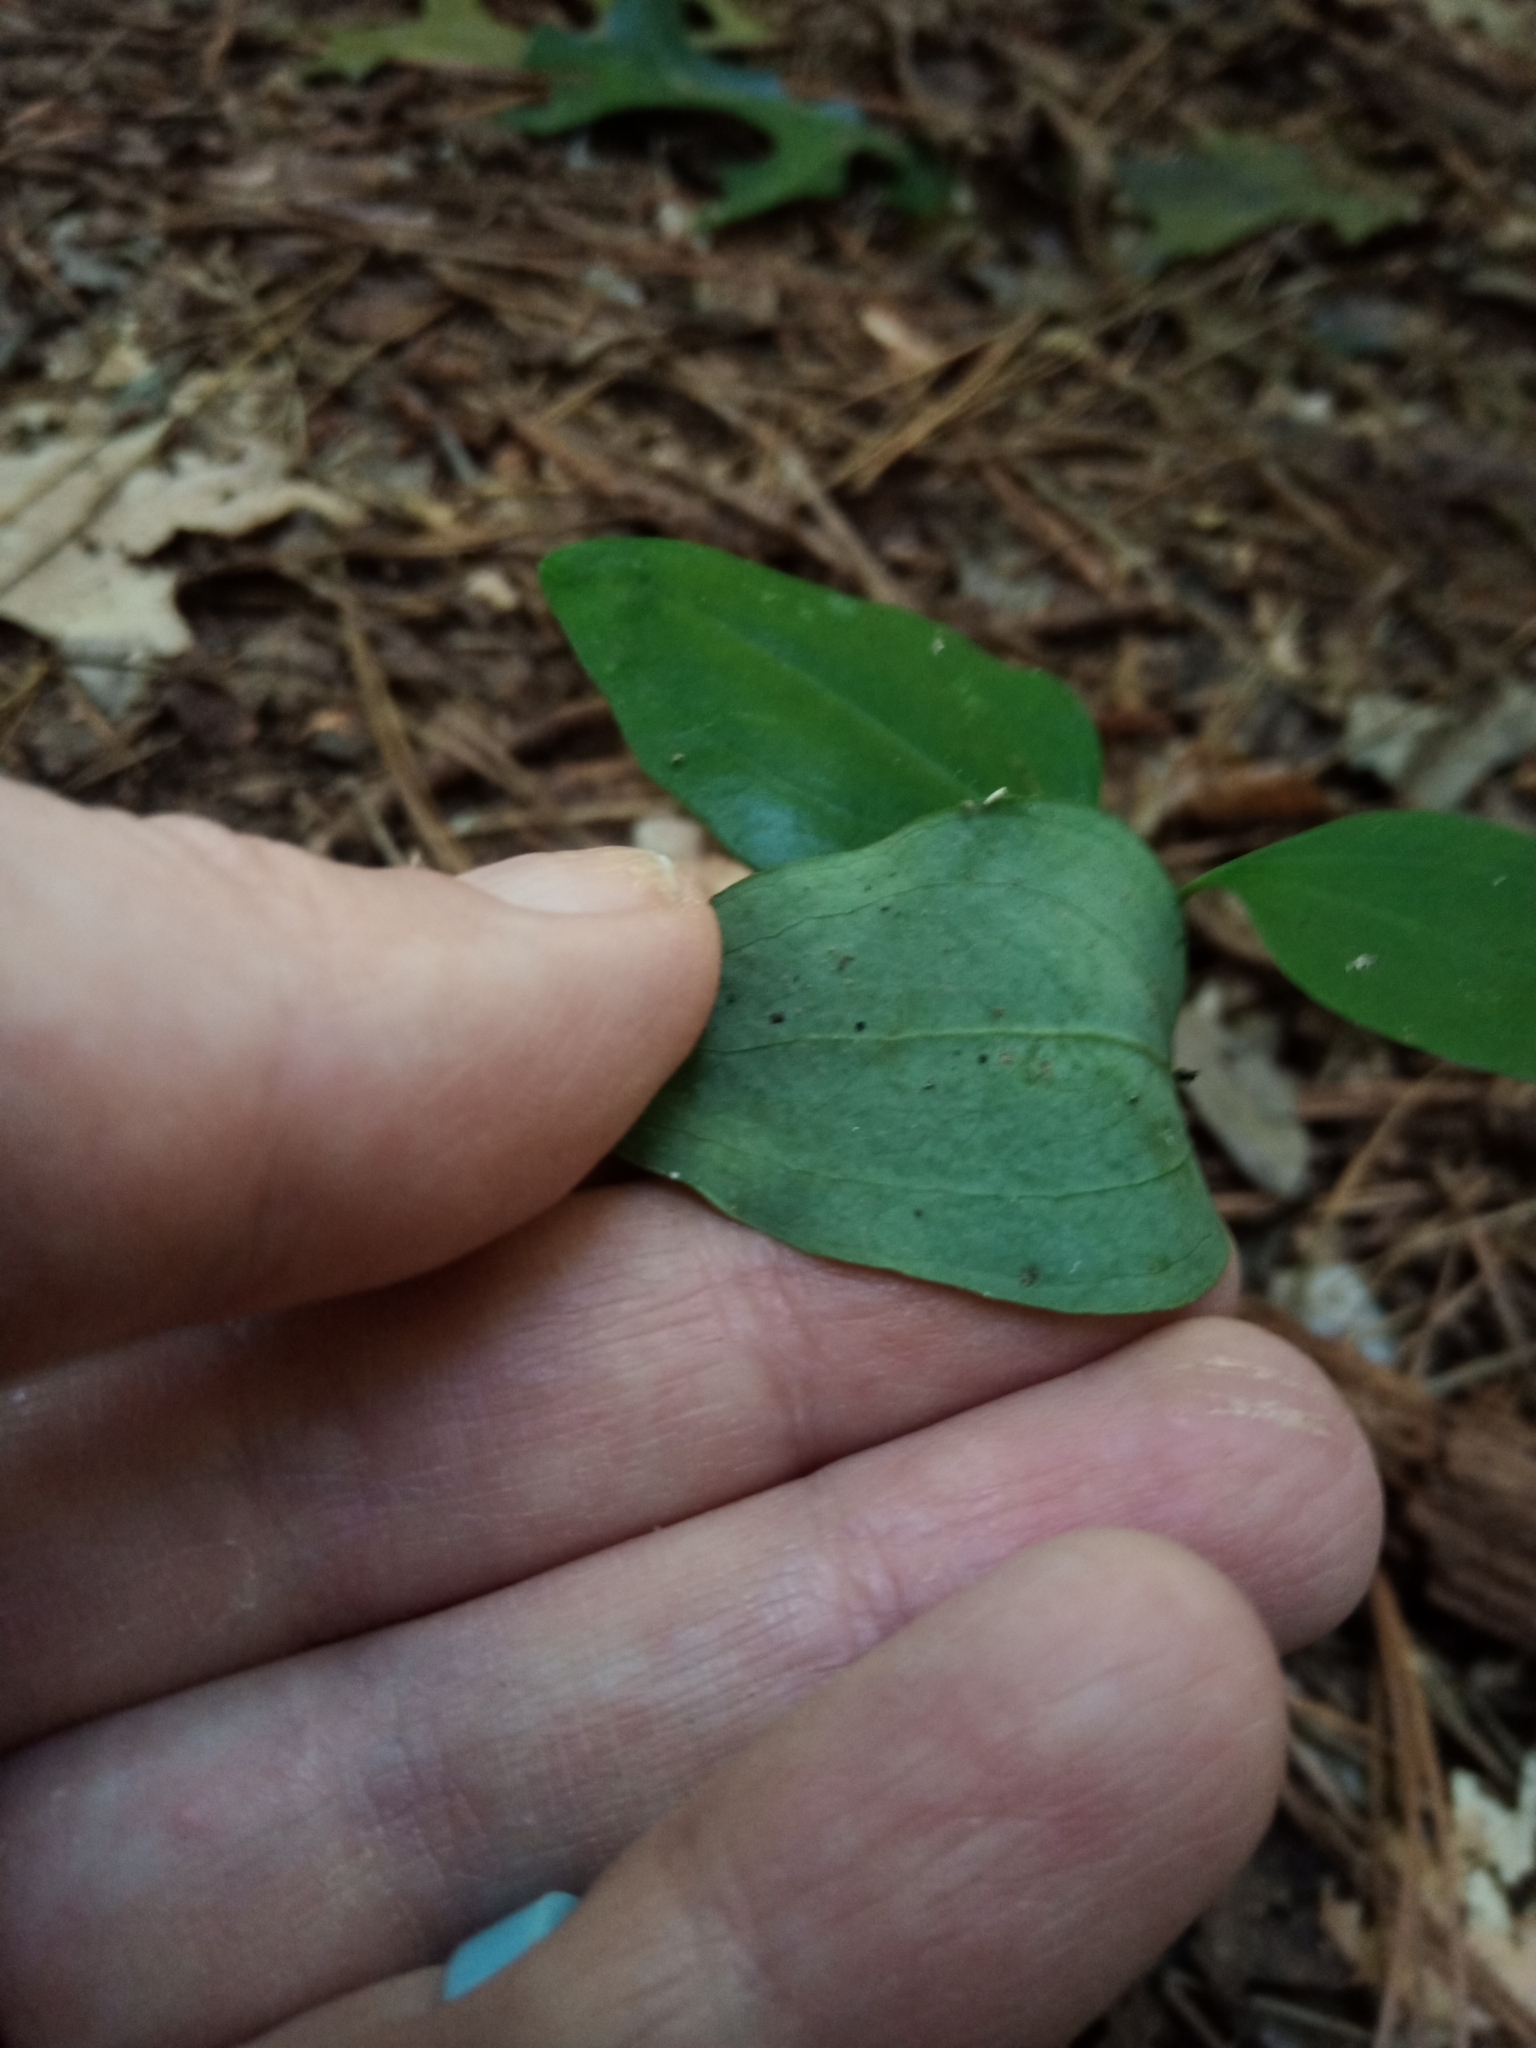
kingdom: Plantae
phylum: Tracheophyta
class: Liliopsida
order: Liliales
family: Smilacaceae
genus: Smilax
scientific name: Smilax glauca
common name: Cat greenbrier
